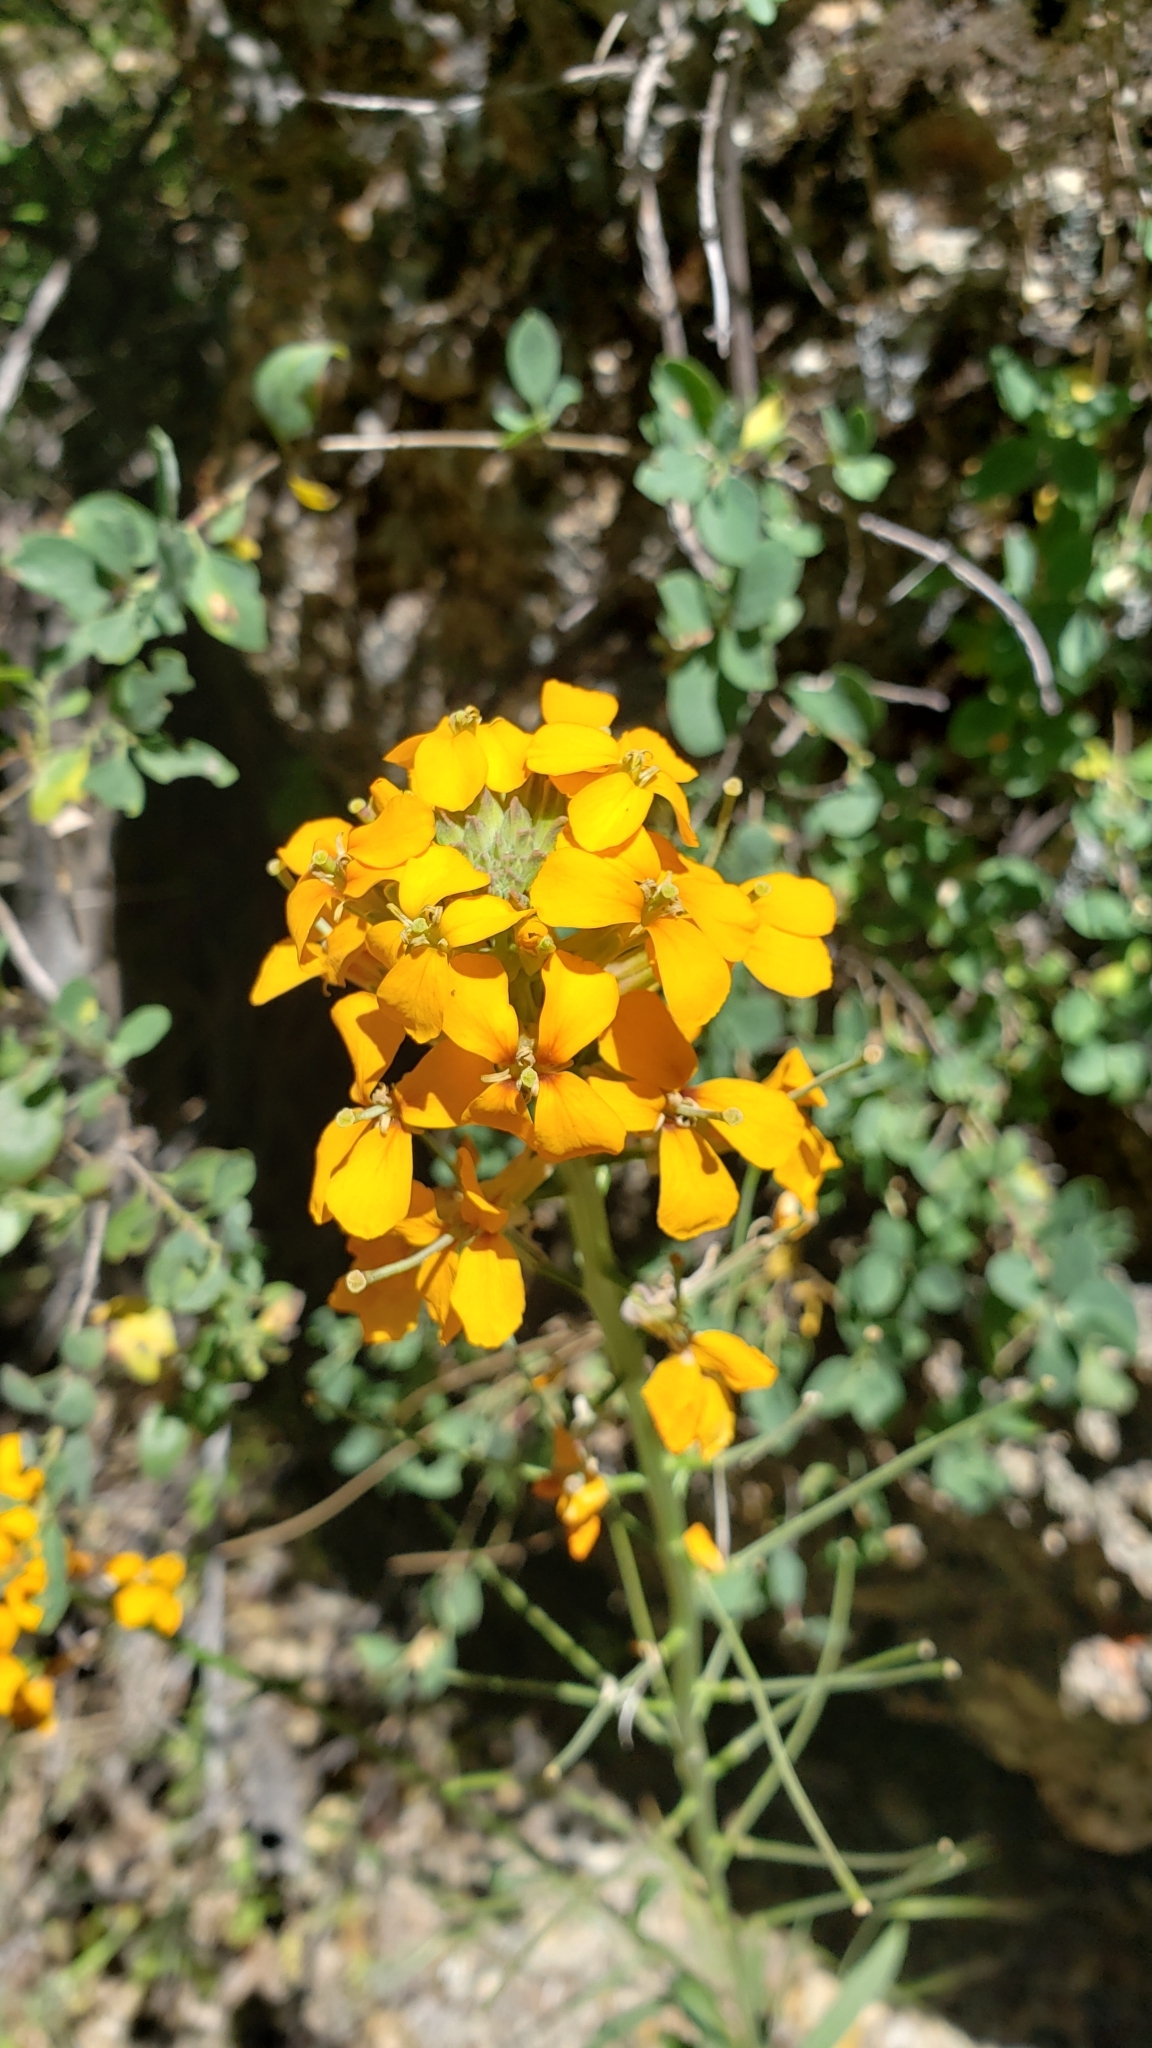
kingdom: Plantae
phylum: Tracheophyta
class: Magnoliopsida
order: Brassicales
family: Brassicaceae
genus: Erysimum
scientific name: Erysimum capitatum
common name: Western wallflower
